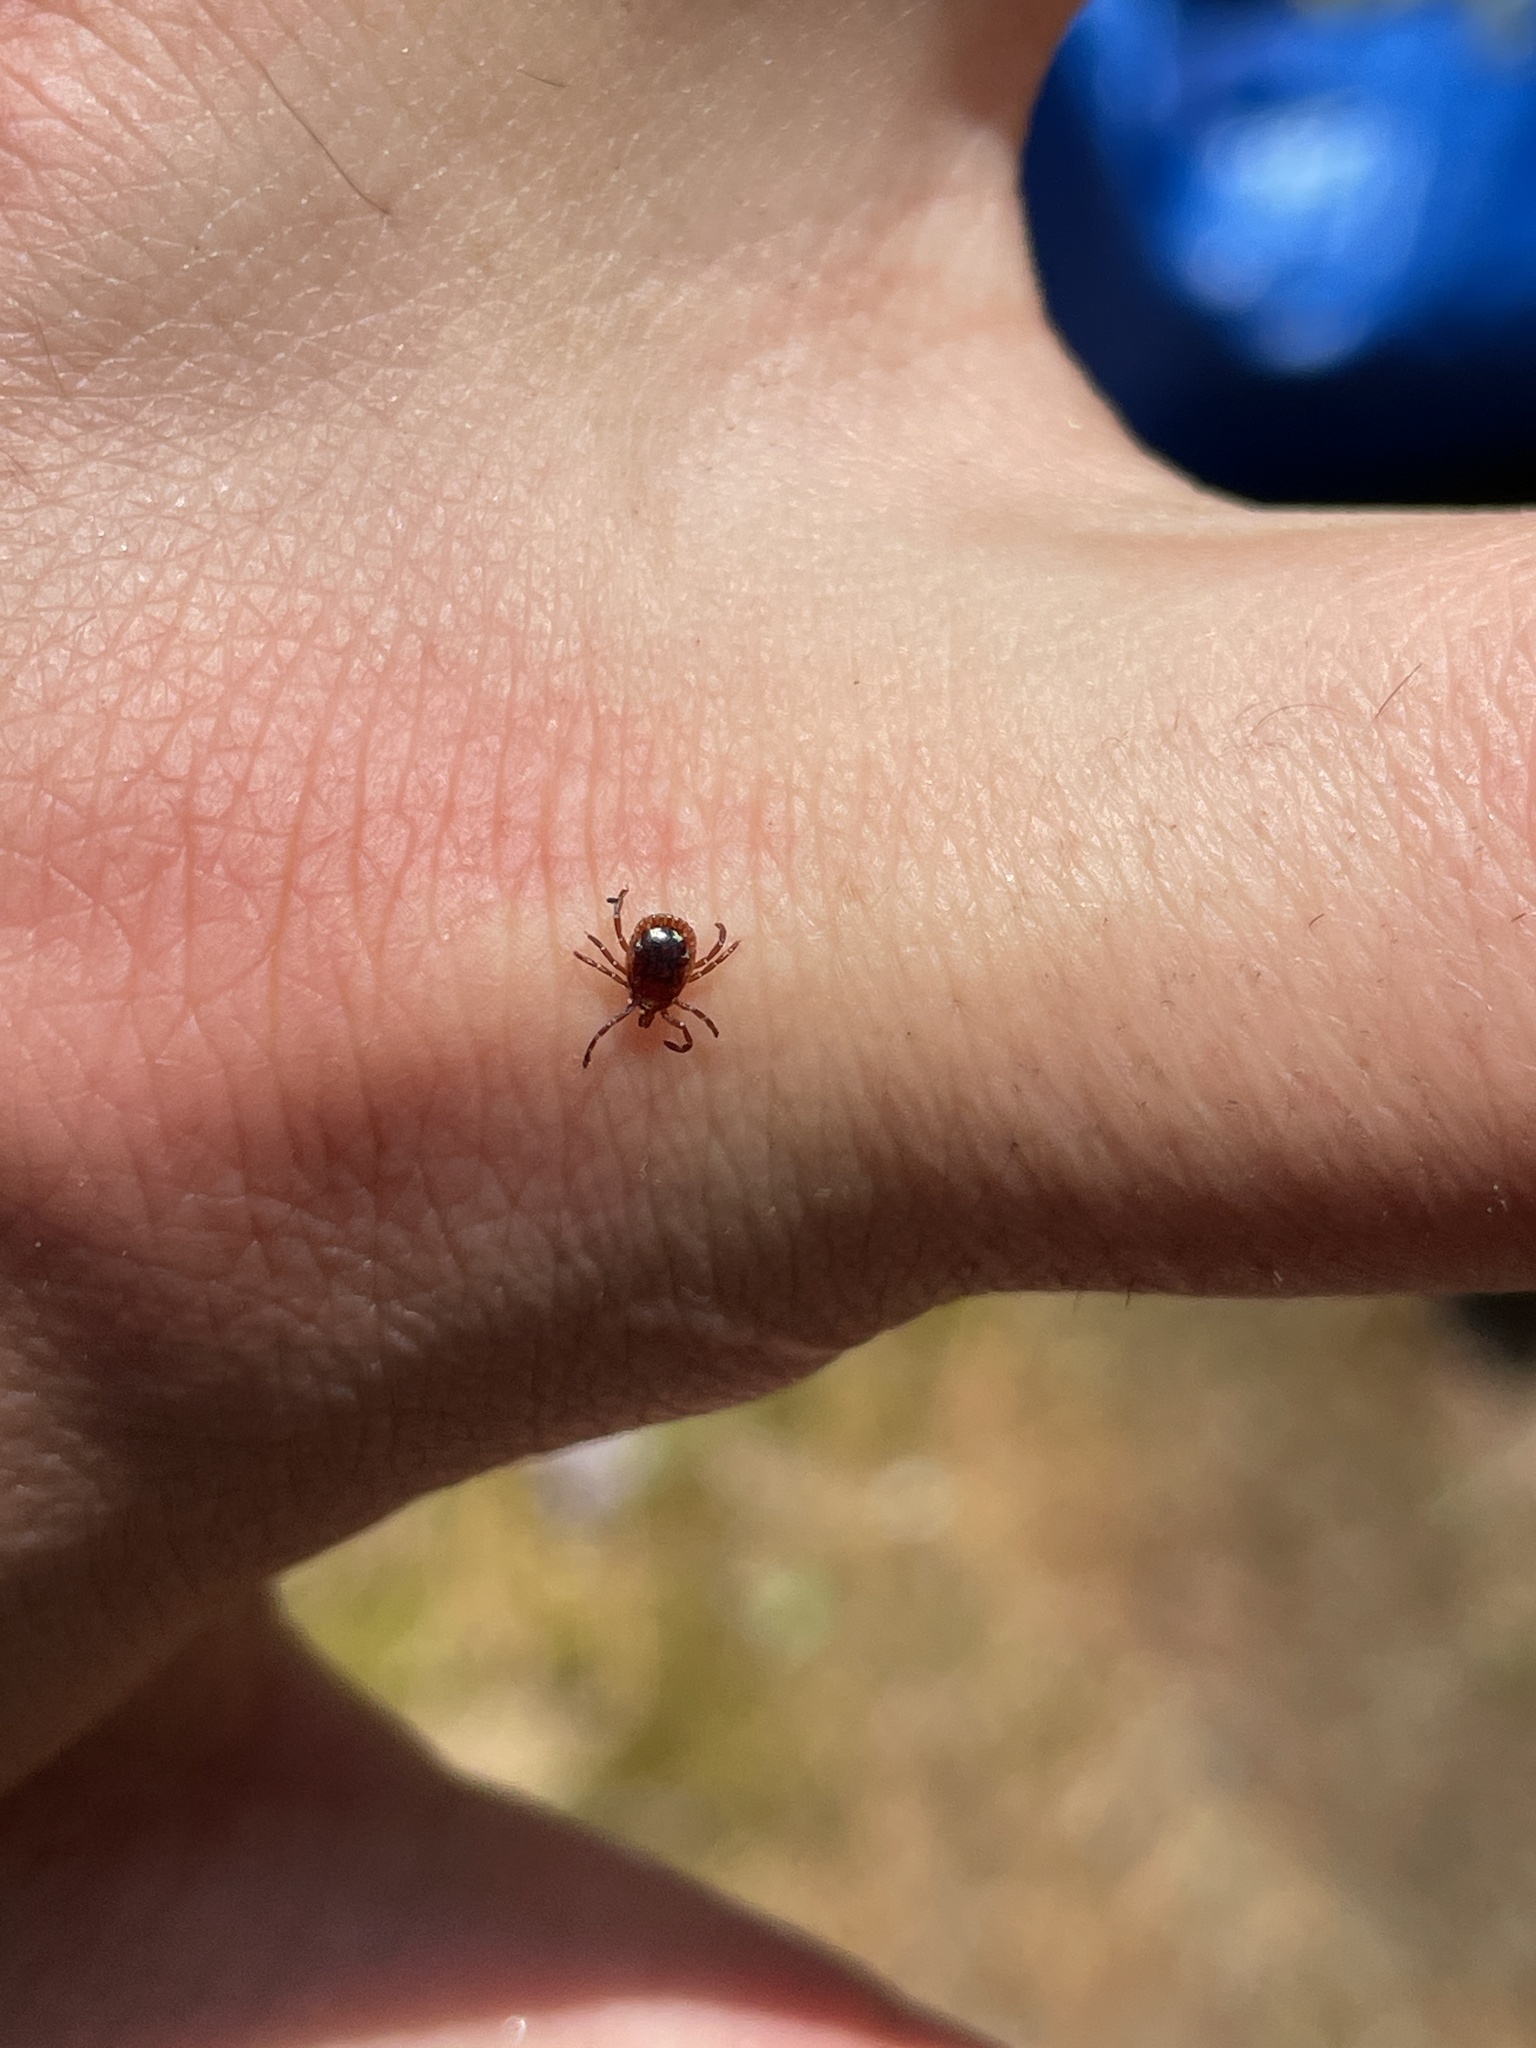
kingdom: Animalia
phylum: Arthropoda
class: Arachnida
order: Ixodida
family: Ixodidae
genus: Amblyomma
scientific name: Amblyomma americanum
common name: Lone star tick
